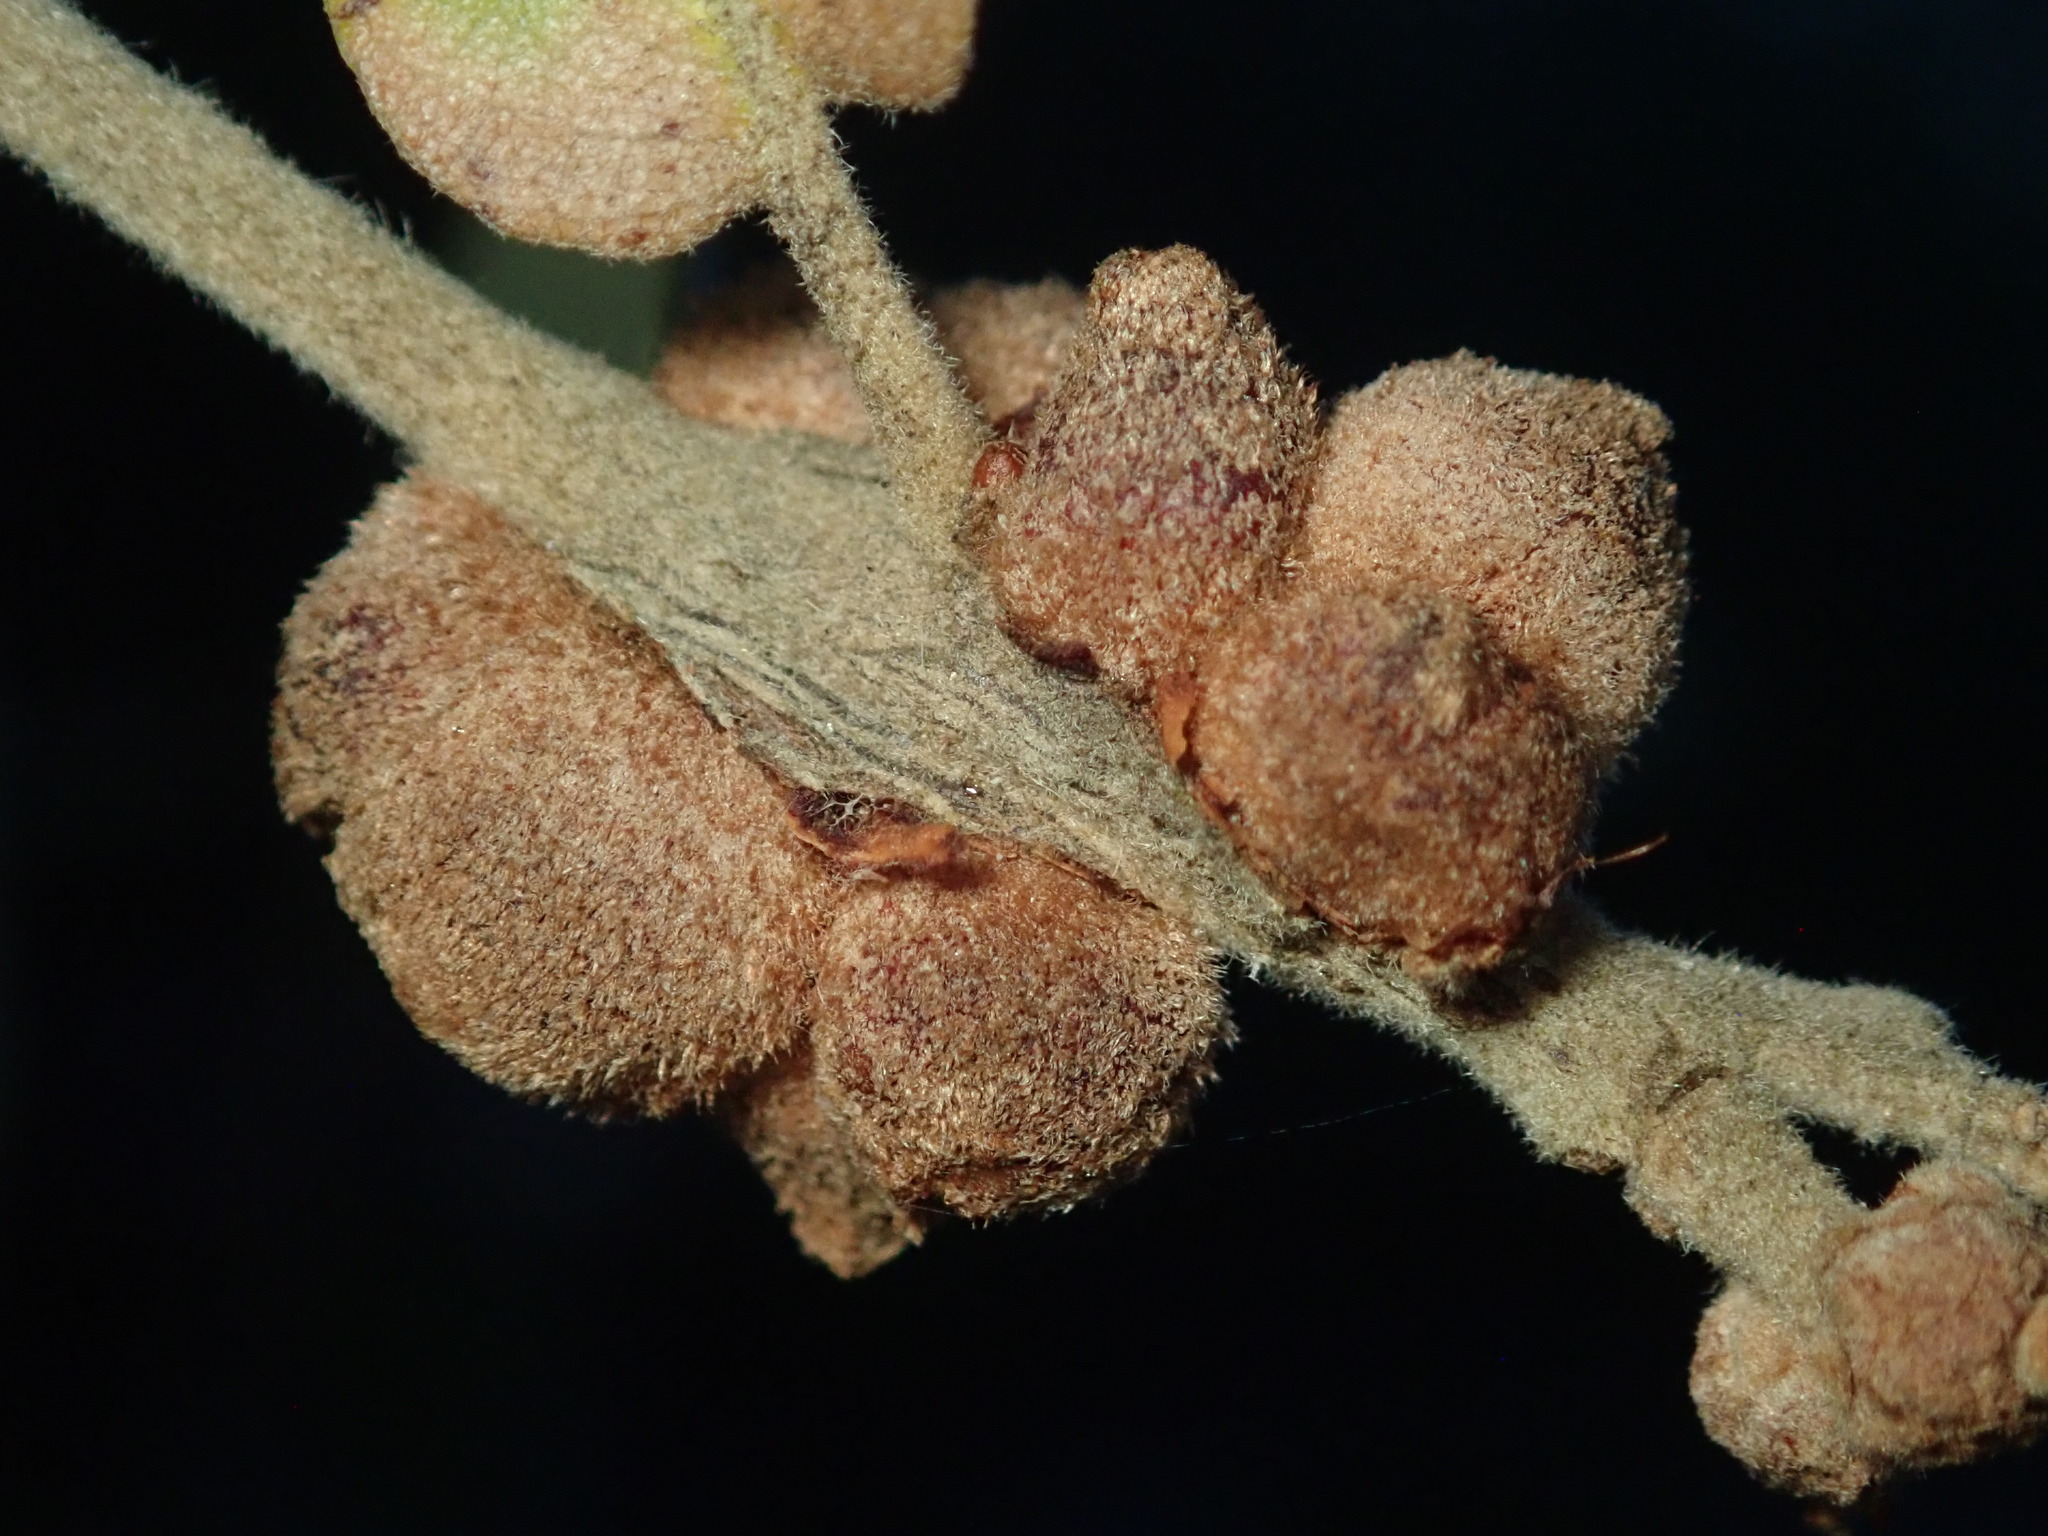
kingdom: Animalia
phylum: Arthropoda
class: Insecta
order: Hymenoptera
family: Cynipidae
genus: Disholcaspis
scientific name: Disholcaspis
